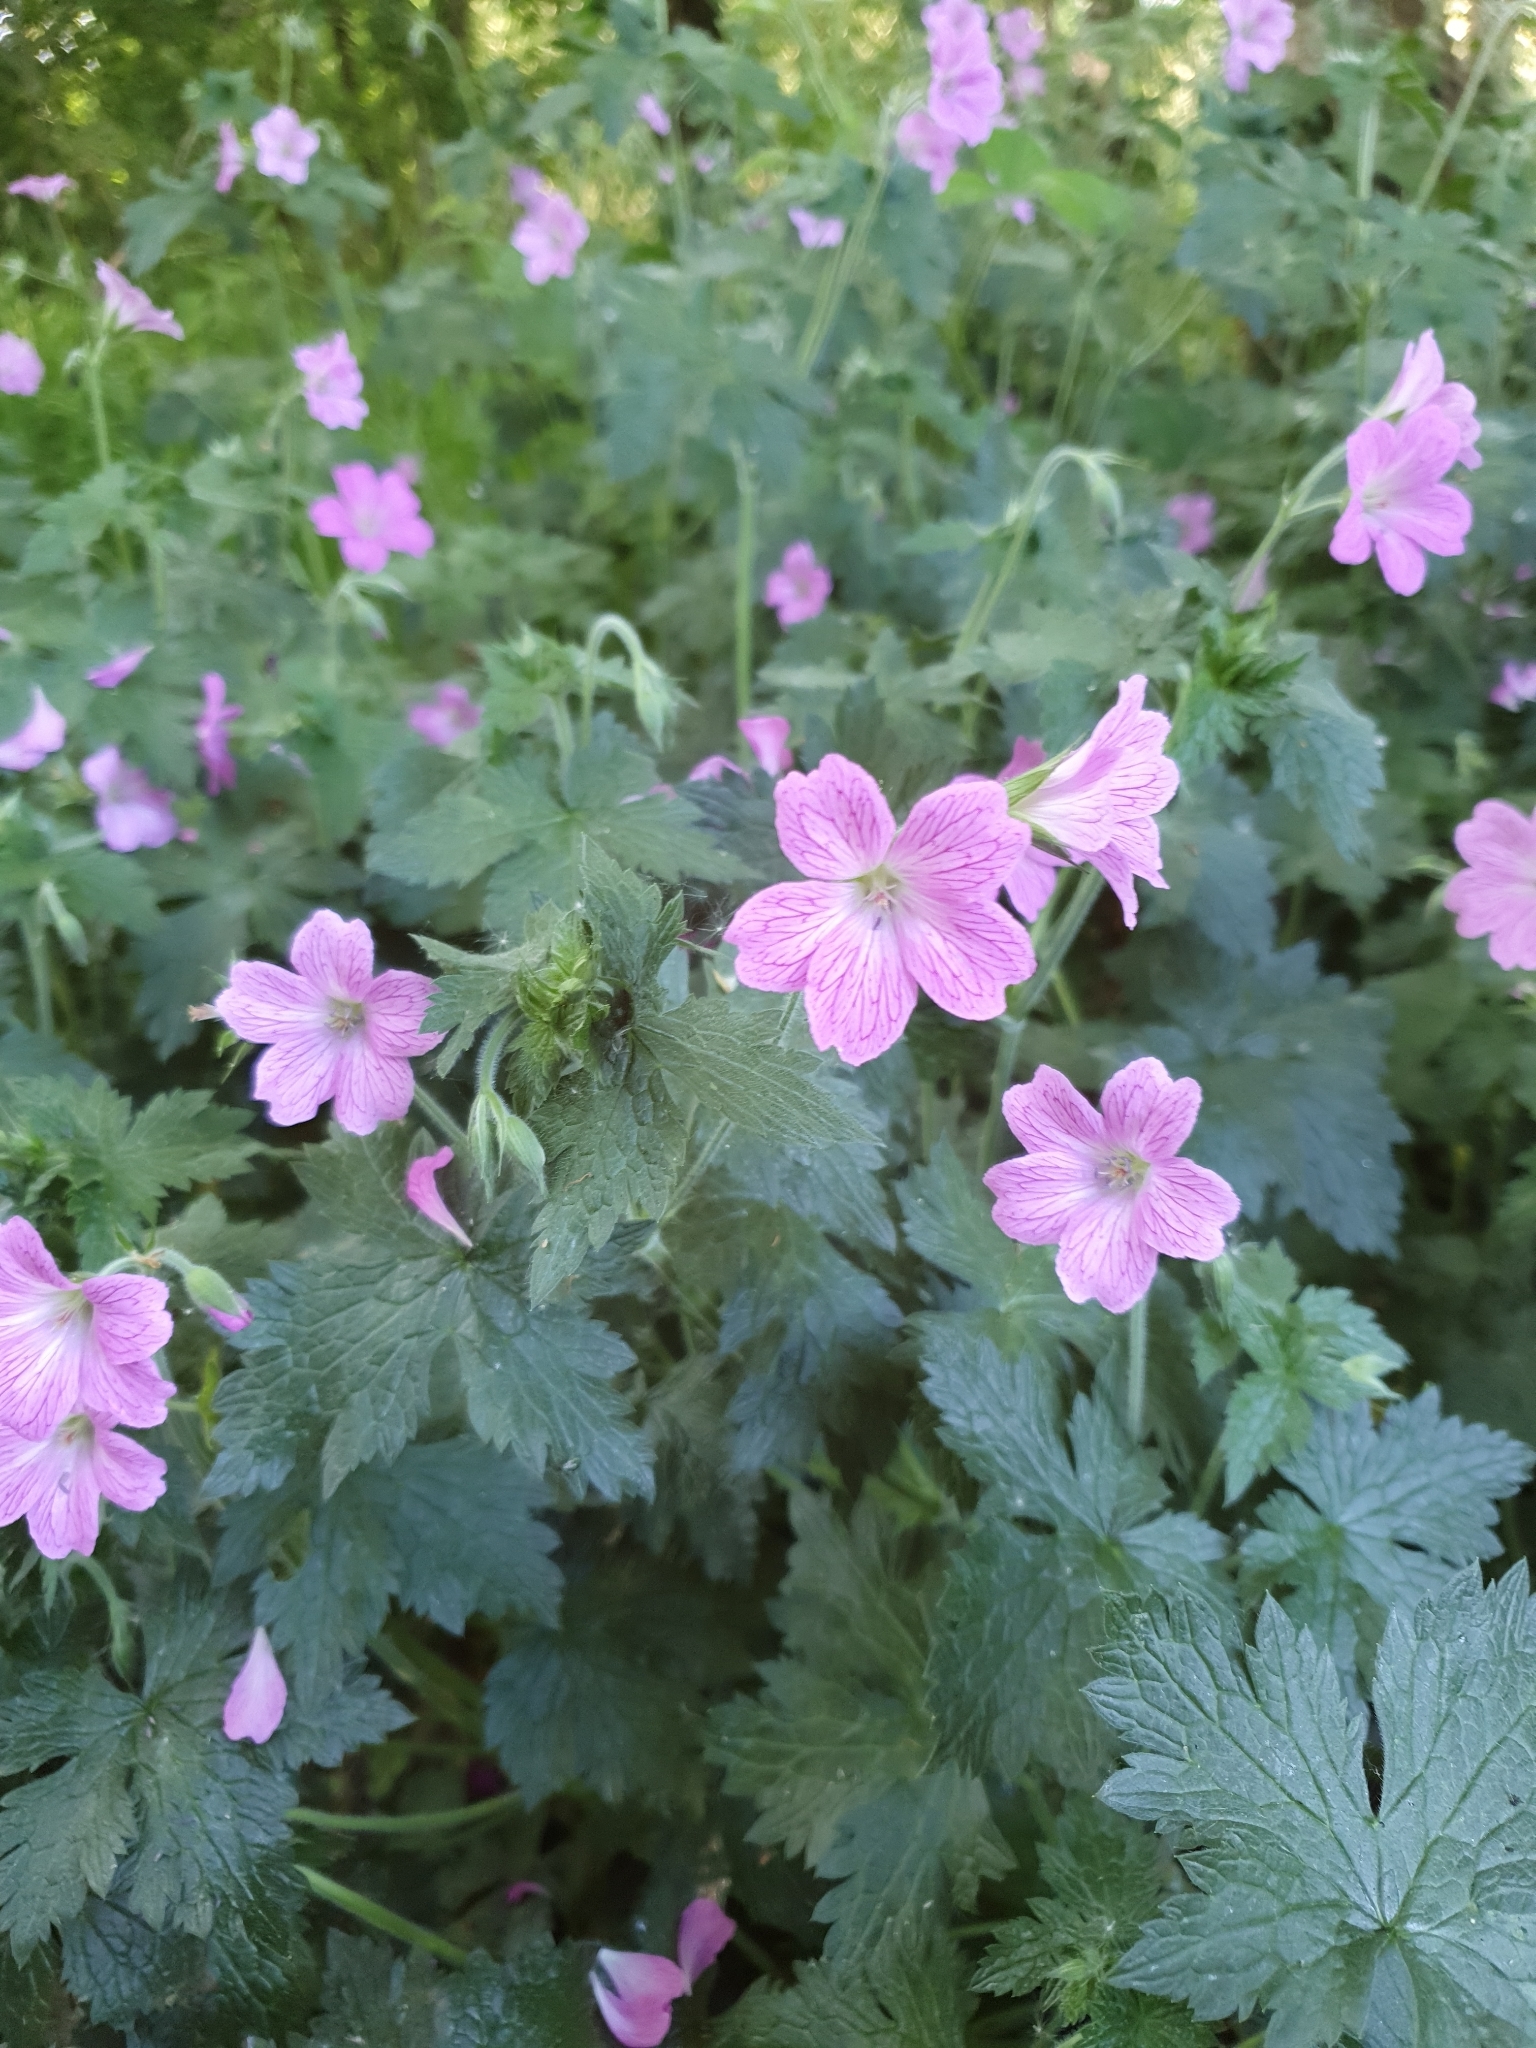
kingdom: Plantae
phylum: Tracheophyta
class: Magnoliopsida
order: Geraniales
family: Geraniaceae
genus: Geranium
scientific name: Geranium oxonianum
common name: Druce's crane's-bill
